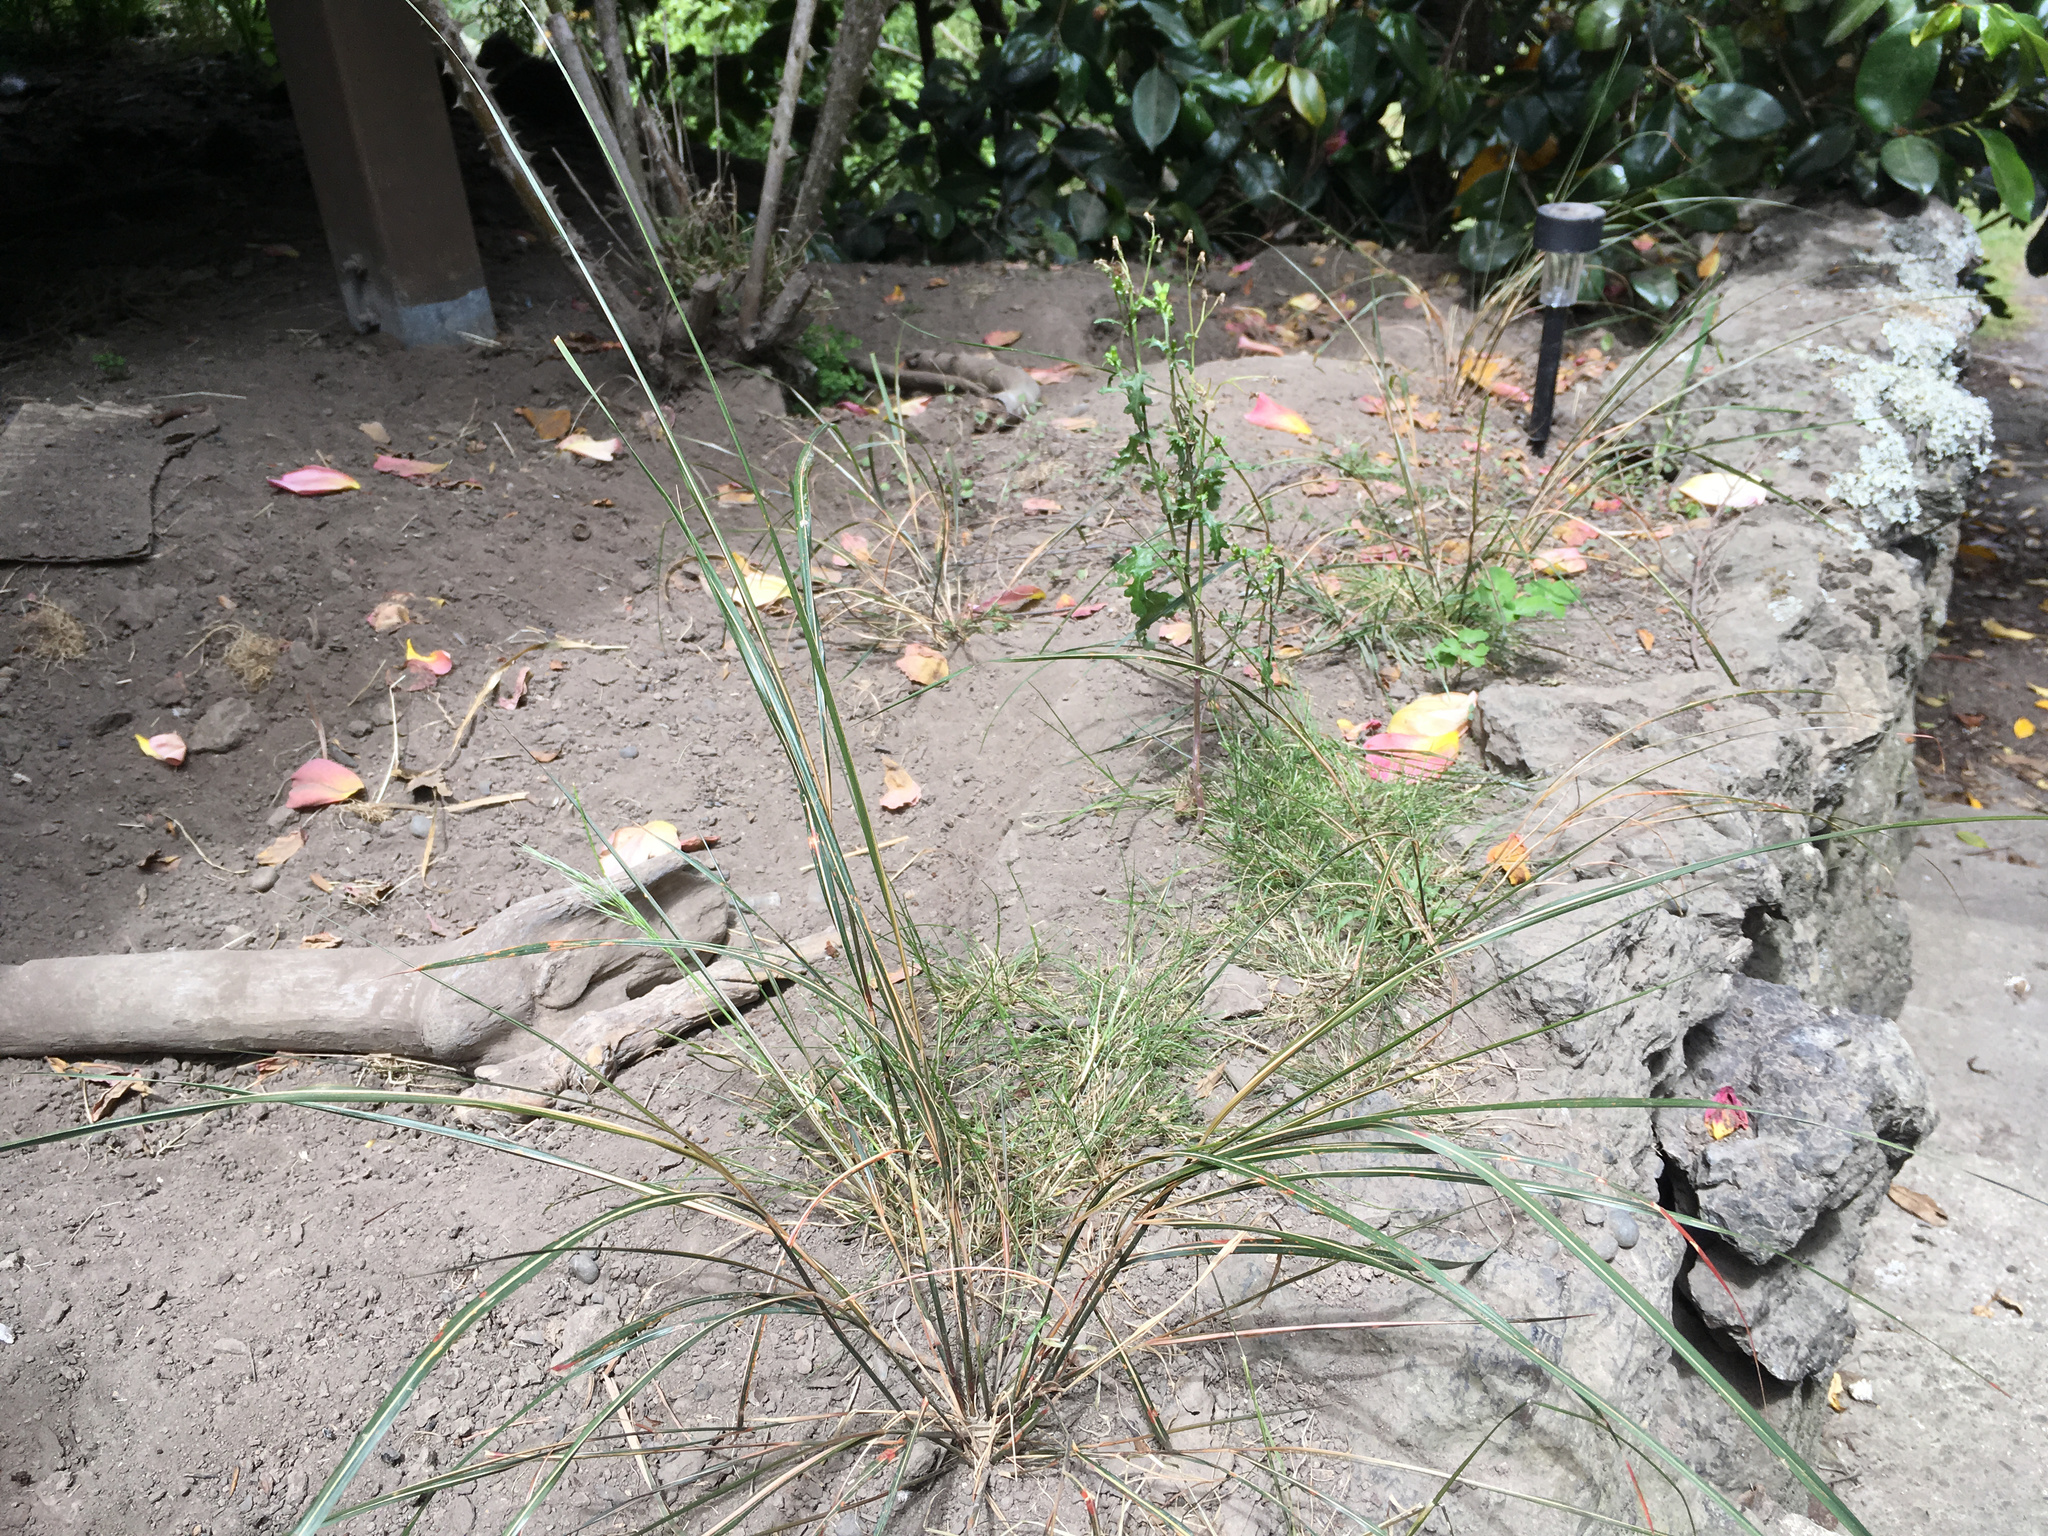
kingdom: Plantae
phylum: Tracheophyta
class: Liliopsida
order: Poales
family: Poaceae
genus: Anemanthele
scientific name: Anemanthele lessoniana
